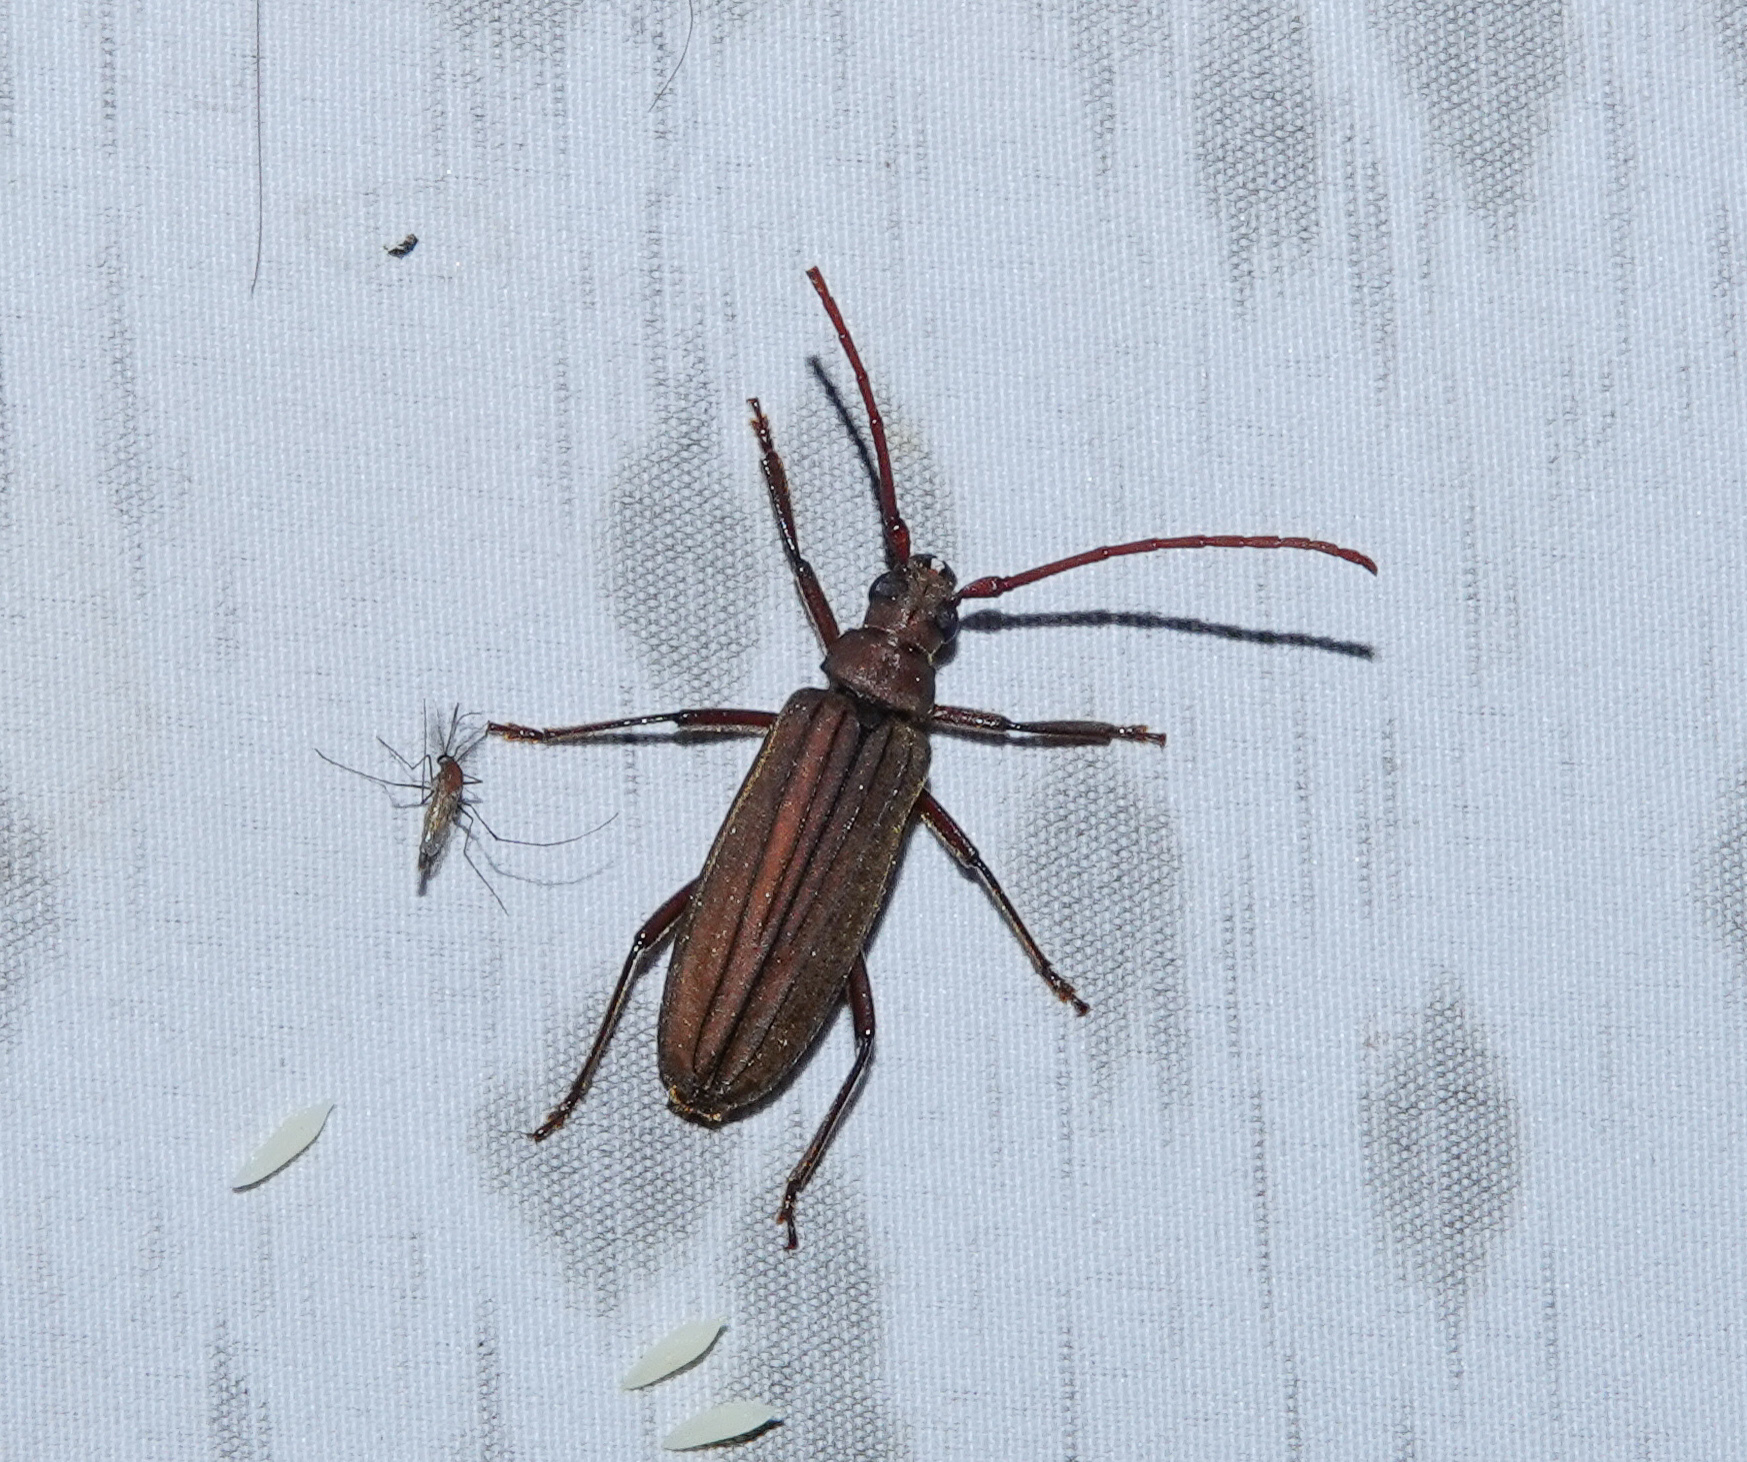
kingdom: Animalia
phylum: Arthropoda
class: Insecta
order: Coleoptera
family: Cerambycidae
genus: Nepiodes
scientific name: Nepiodes bowringi
